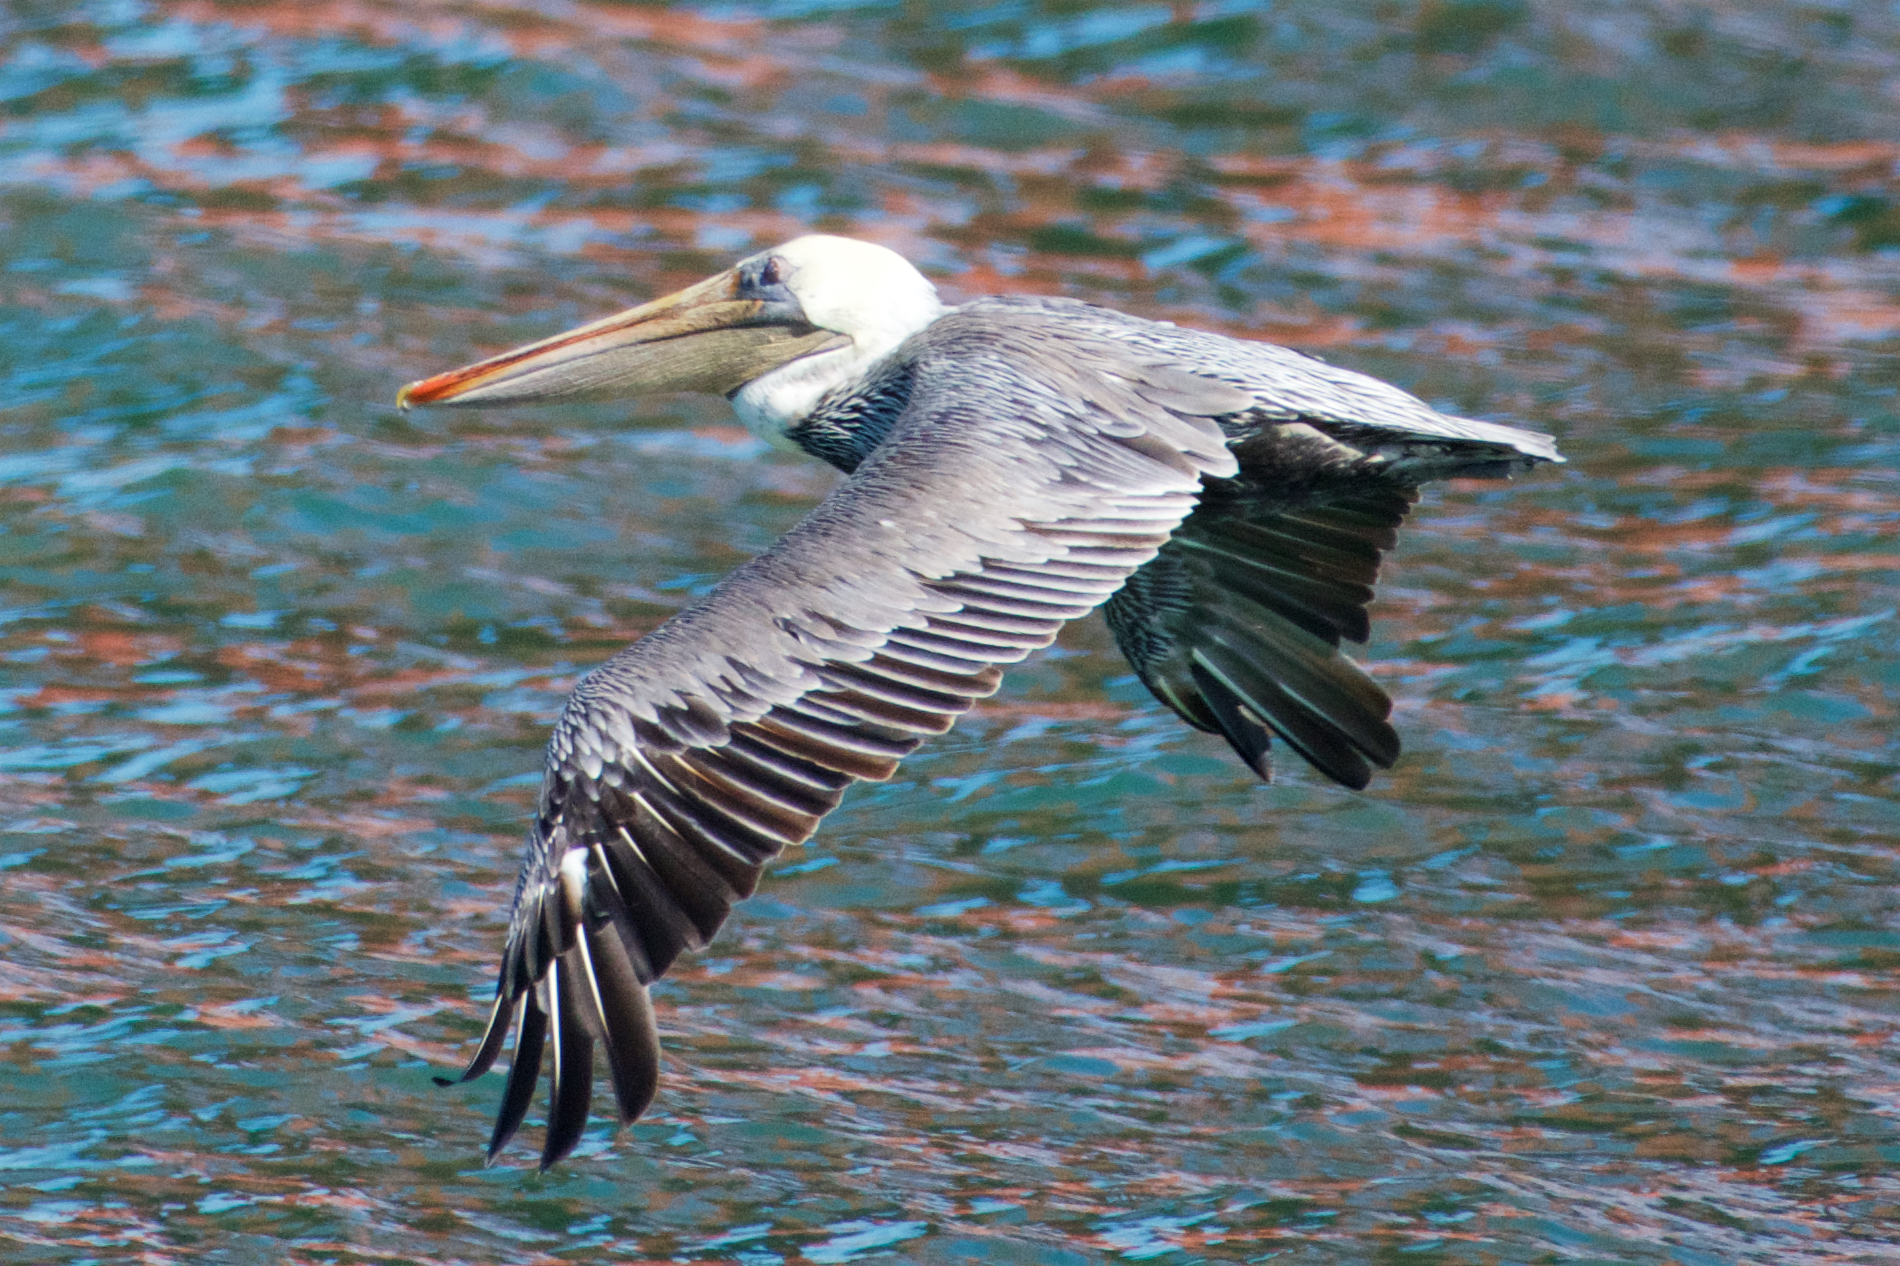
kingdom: Animalia
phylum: Chordata
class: Aves
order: Pelecaniformes
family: Pelecanidae
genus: Pelecanus
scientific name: Pelecanus occidentalis
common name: Brown pelican
